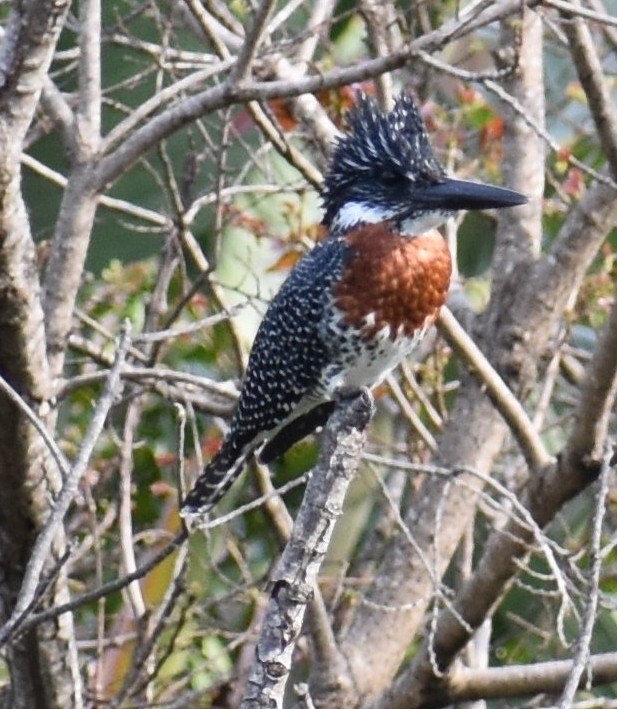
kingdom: Animalia
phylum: Chordata
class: Aves
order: Coraciiformes
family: Alcedinidae
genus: Megaceryle
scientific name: Megaceryle maxima
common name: Giant kingfisher
